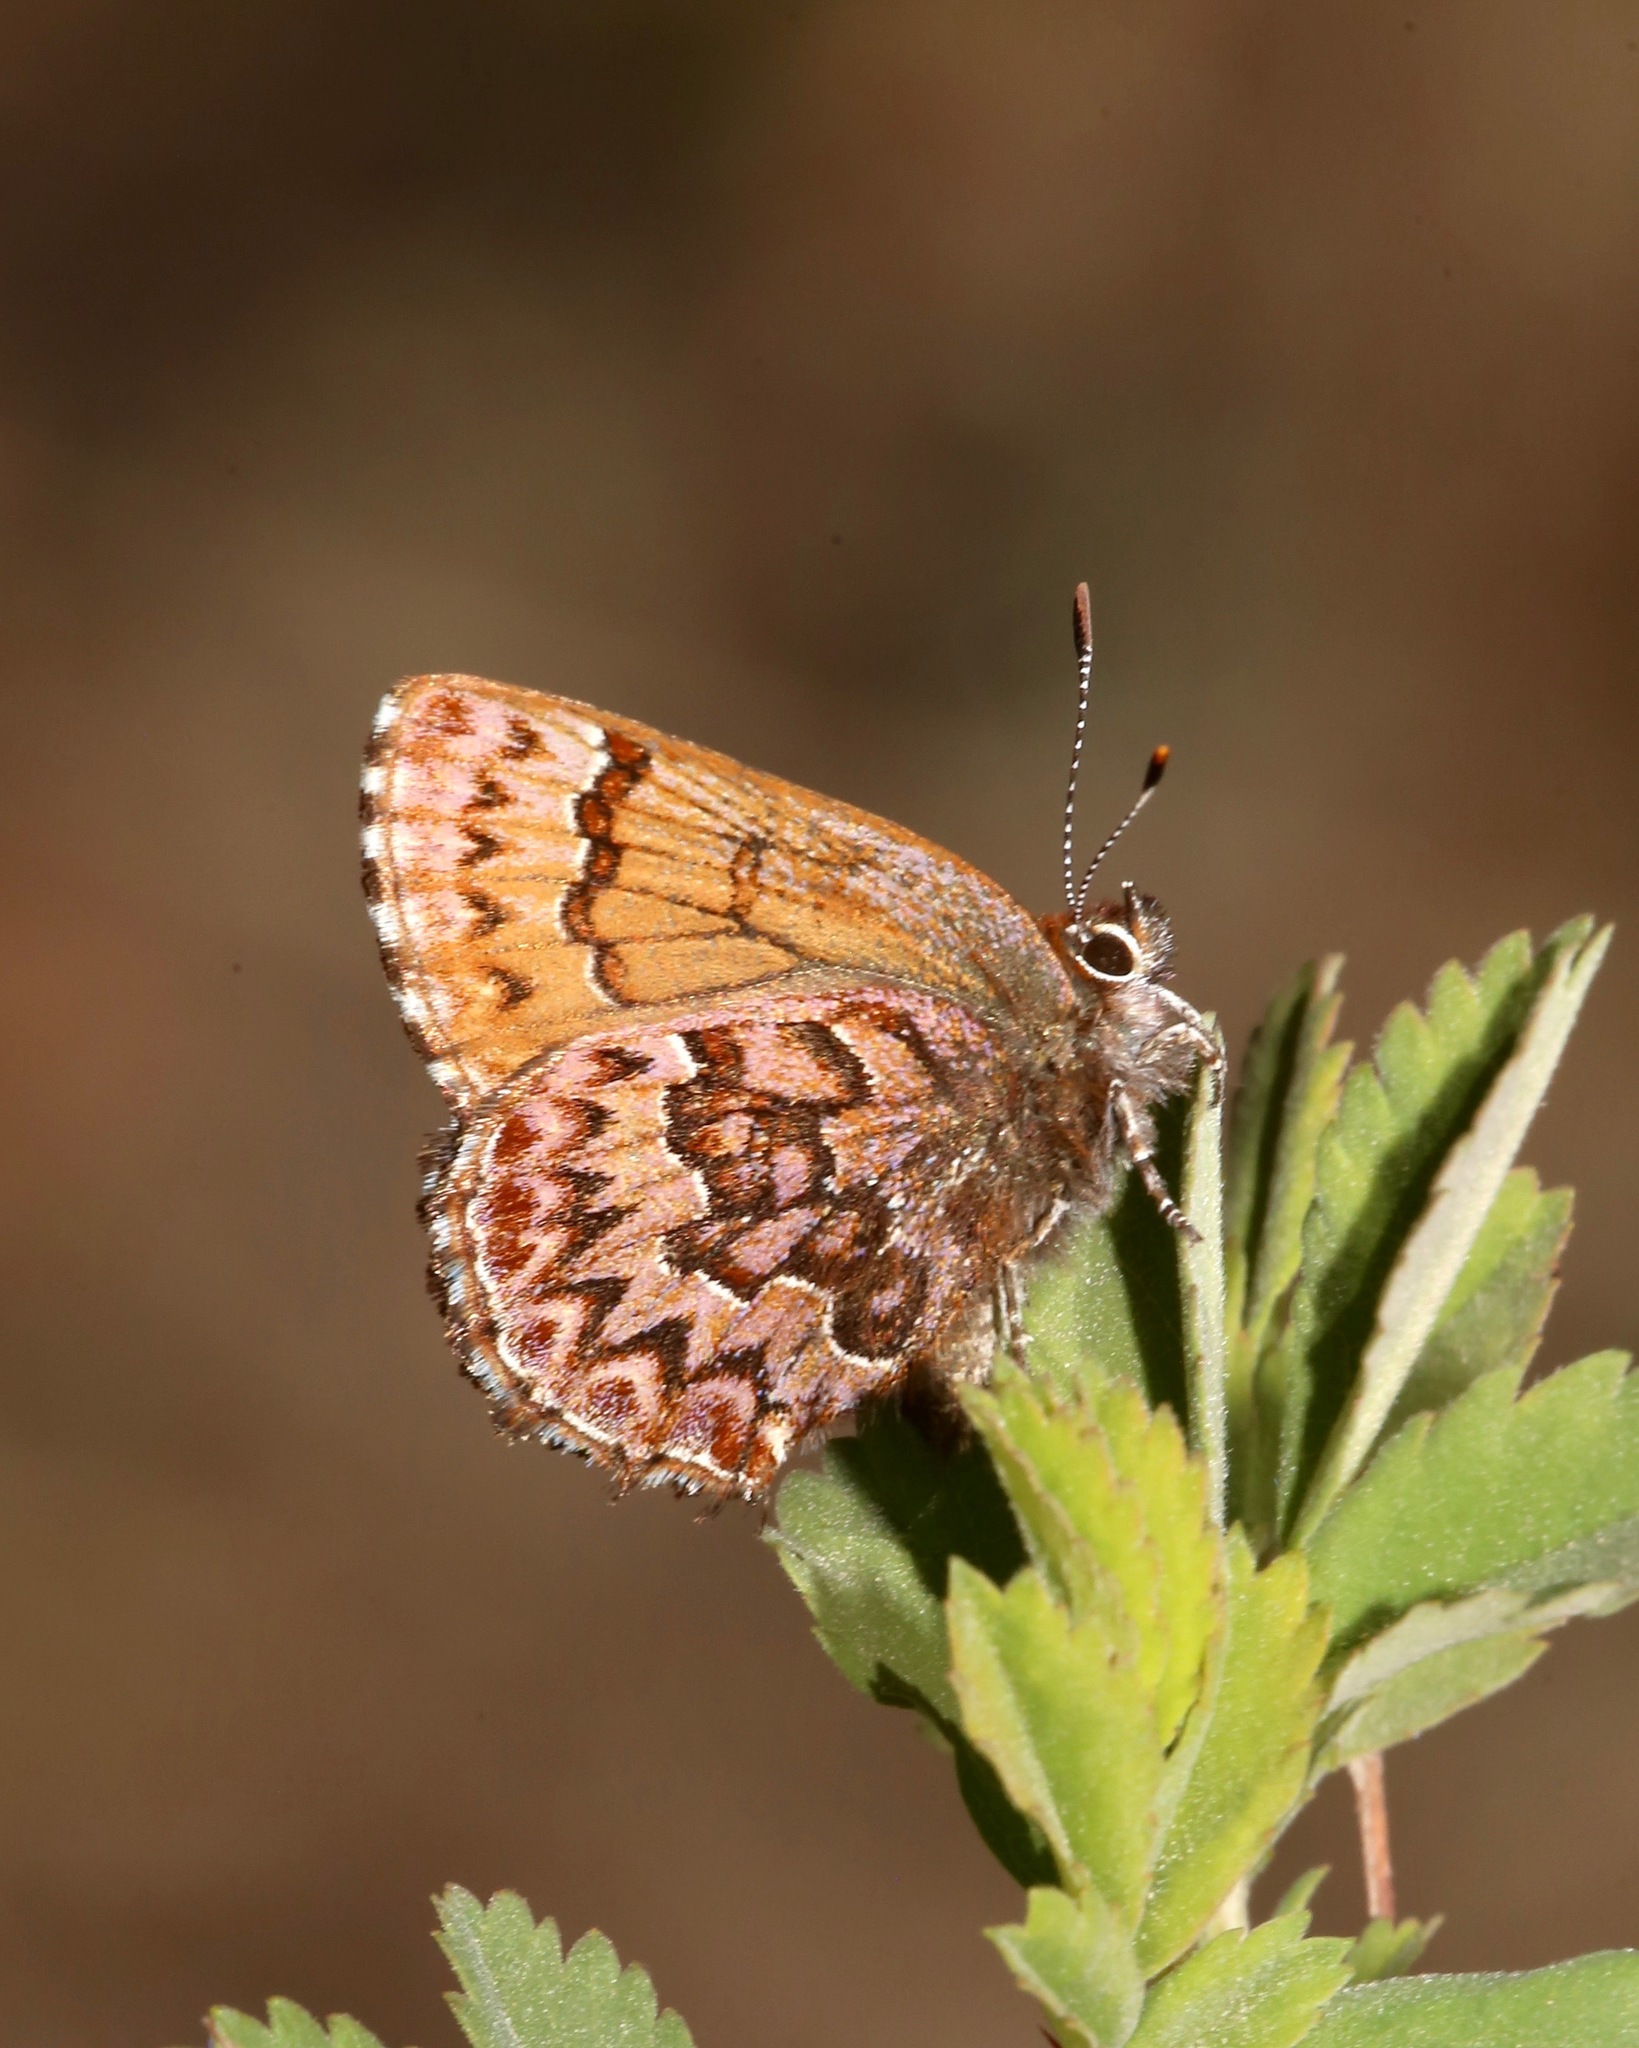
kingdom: Animalia
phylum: Arthropoda
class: Insecta
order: Lepidoptera
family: Lycaenidae
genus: Incisalia
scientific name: Incisalia eryphon
